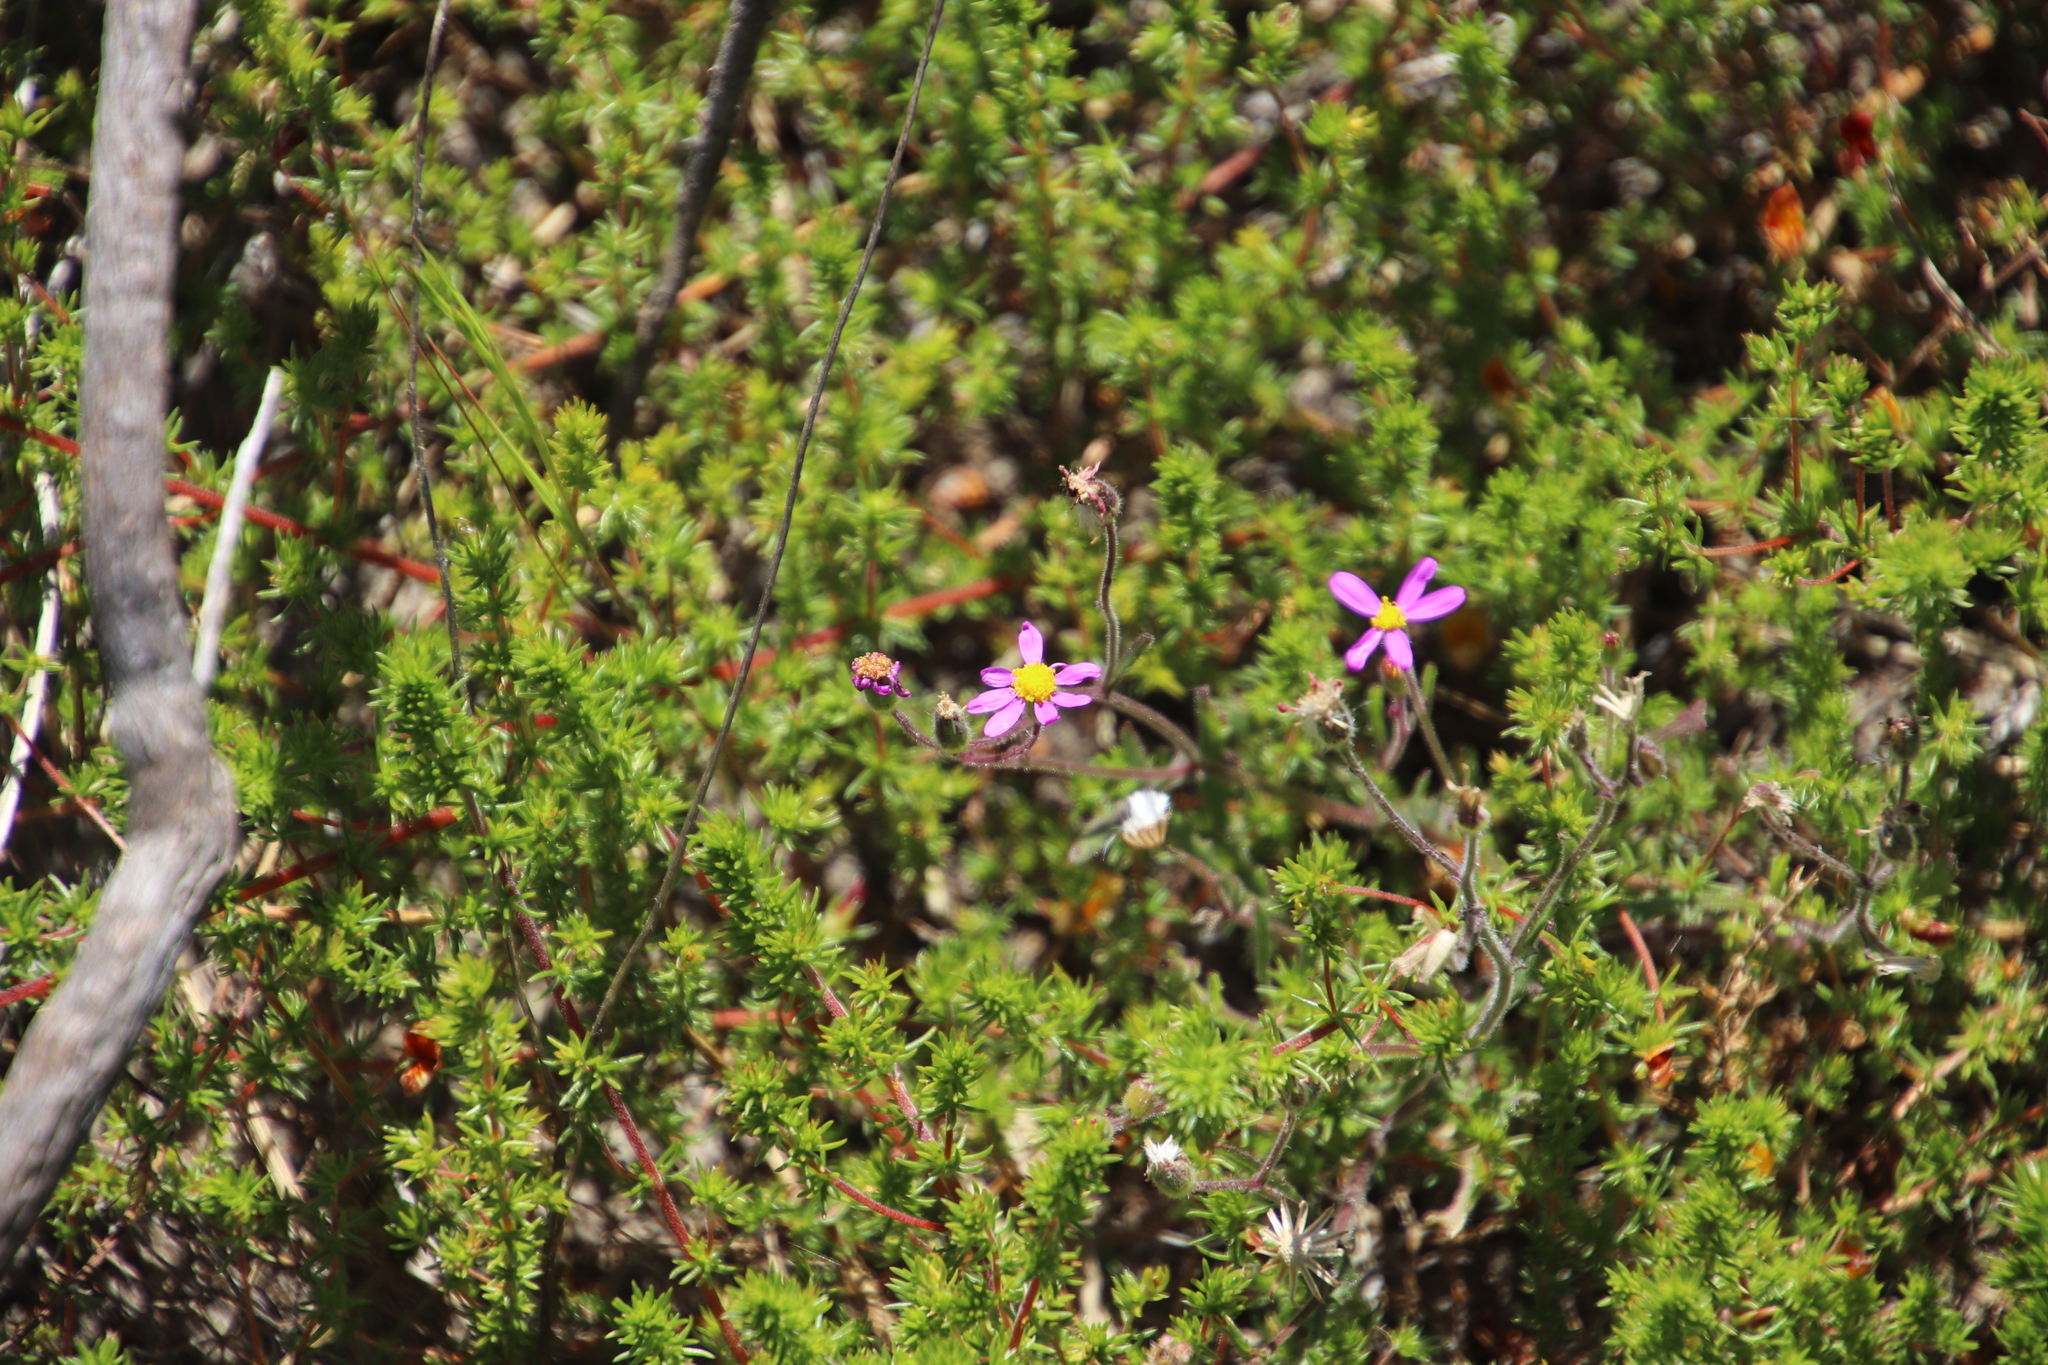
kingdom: Plantae
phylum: Tracheophyta
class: Magnoliopsida
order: Asterales
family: Asteraceae
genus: Senecio
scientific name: Senecio arenarius
